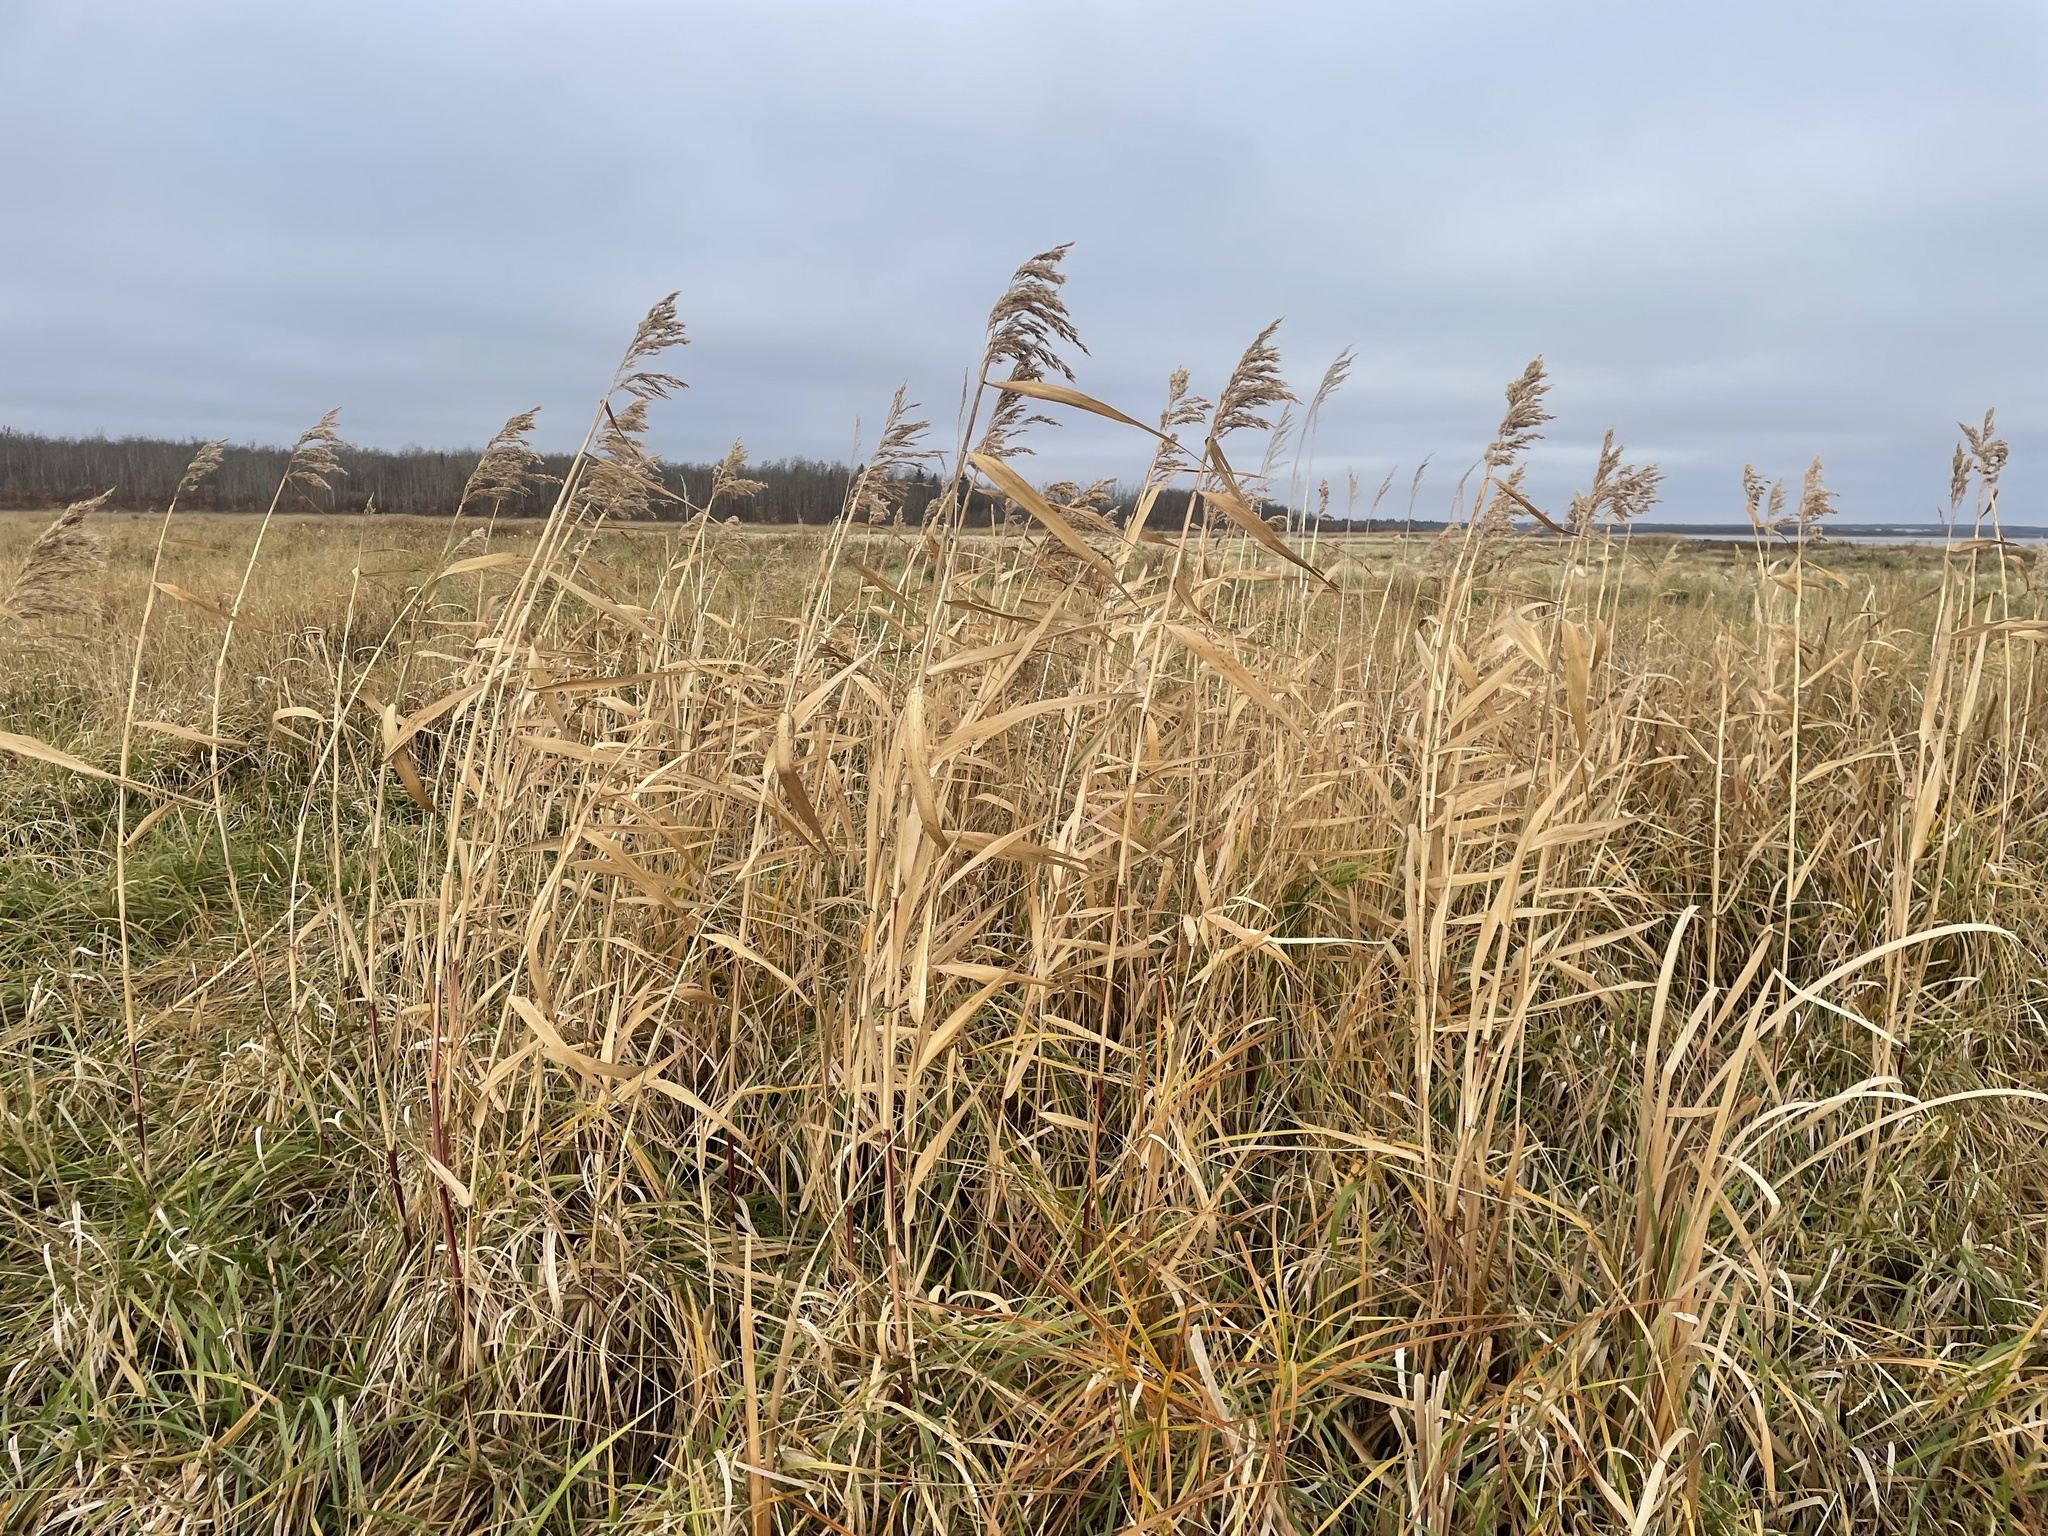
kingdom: Plantae
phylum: Tracheophyta
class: Liliopsida
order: Poales
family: Poaceae
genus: Phragmites
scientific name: Phragmites australis
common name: Common reed
